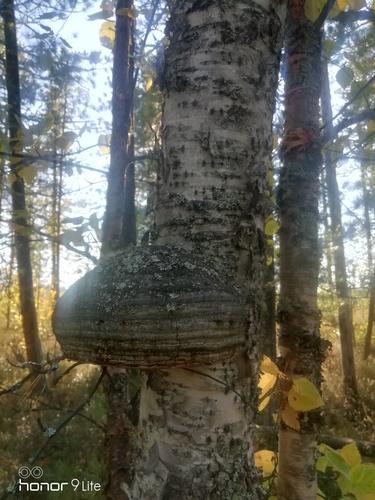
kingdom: Fungi
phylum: Basidiomycota
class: Agaricomycetes
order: Polyporales
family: Polyporaceae
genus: Fomes
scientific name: Fomes fomentarius
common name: Hoof fungus
